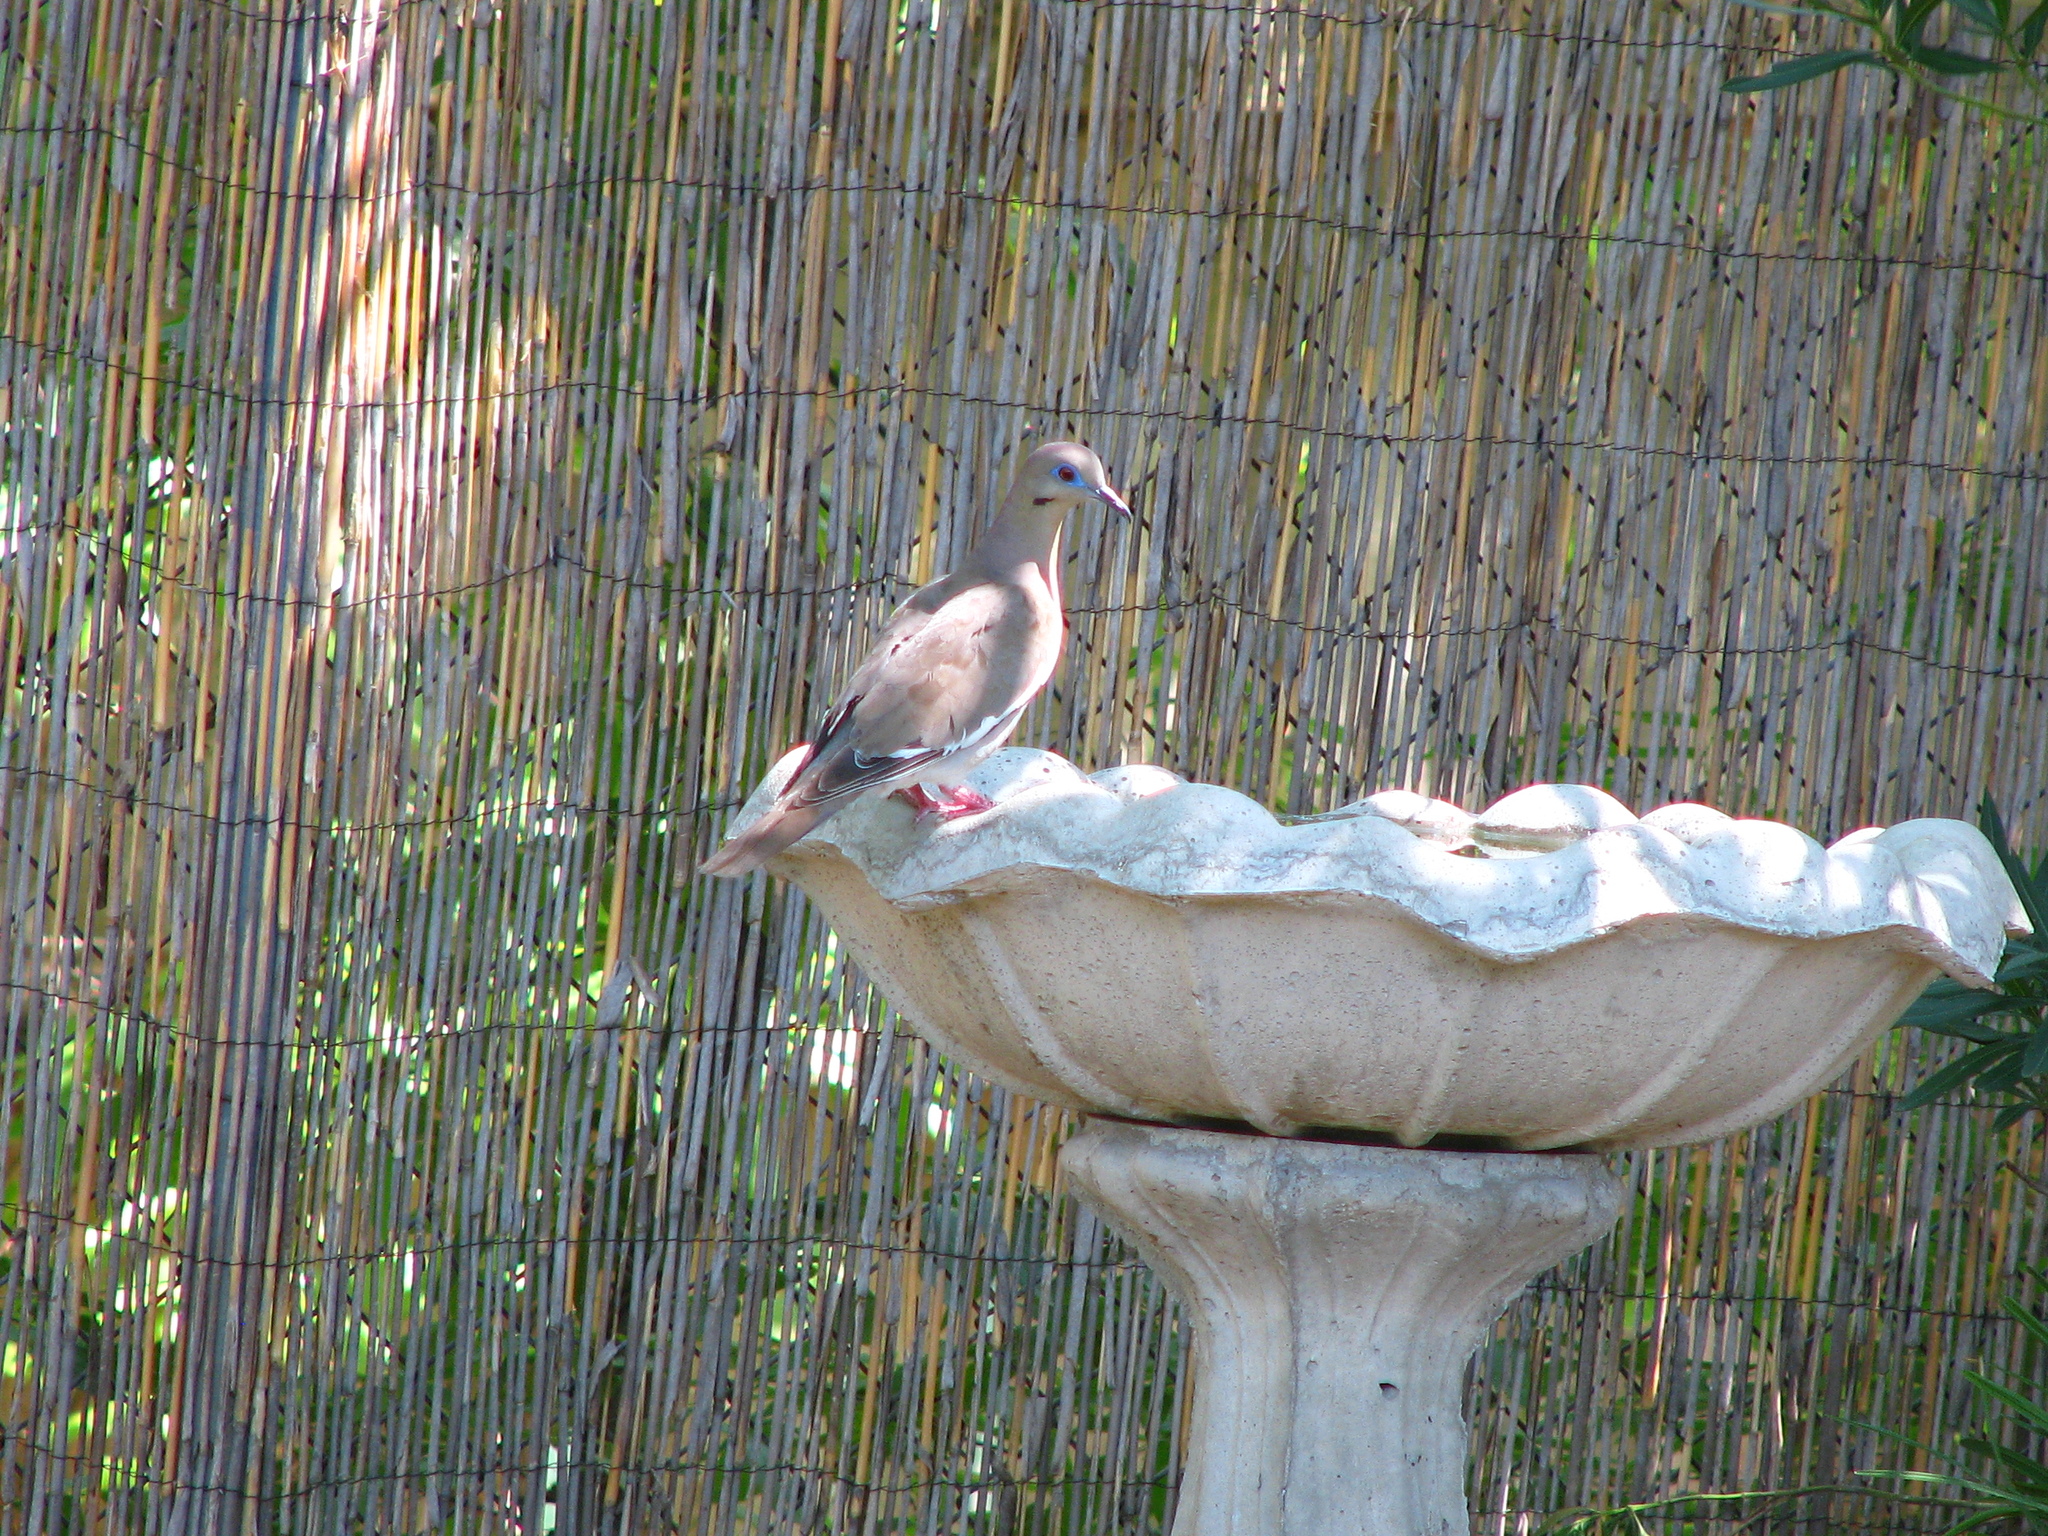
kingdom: Animalia
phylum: Chordata
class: Aves
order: Columbiformes
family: Columbidae
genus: Zenaida
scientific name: Zenaida asiatica
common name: White-winged dove
